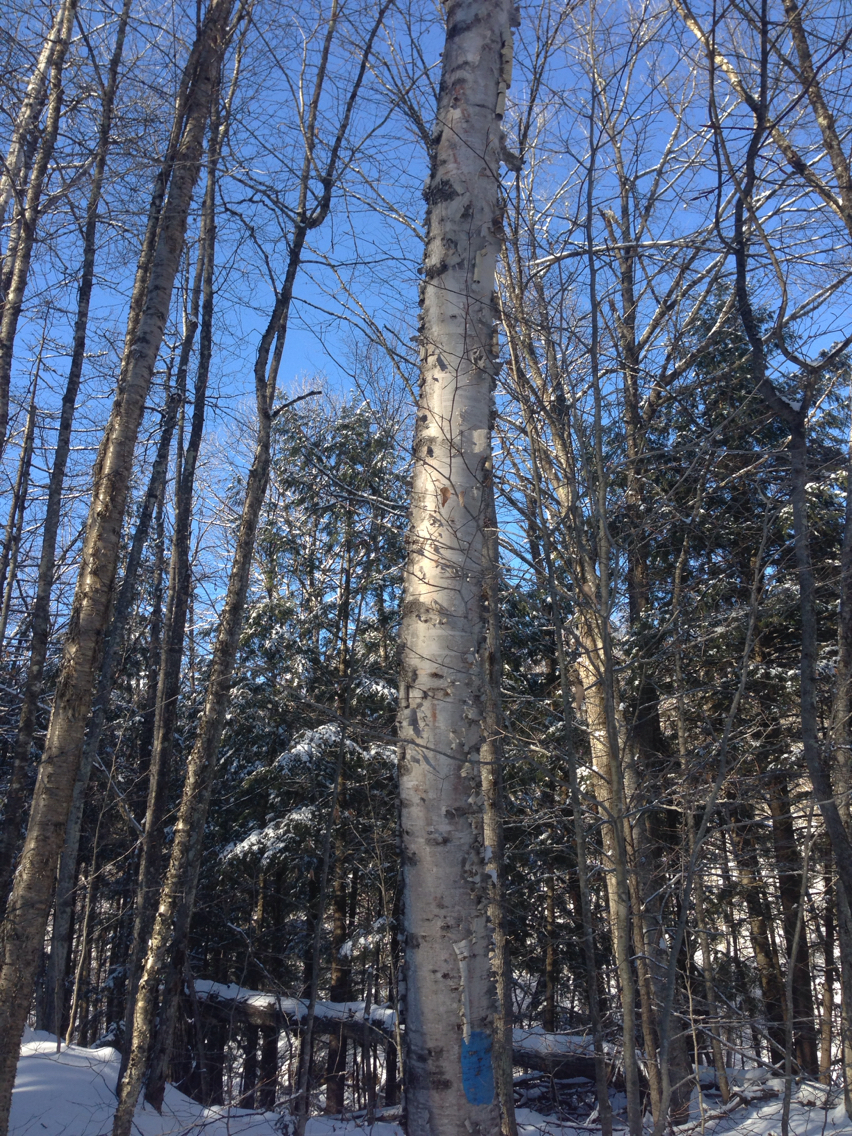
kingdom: Plantae
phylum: Tracheophyta
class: Magnoliopsida
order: Fagales
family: Betulaceae
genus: Betula
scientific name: Betula papyrifera
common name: Paper birch
